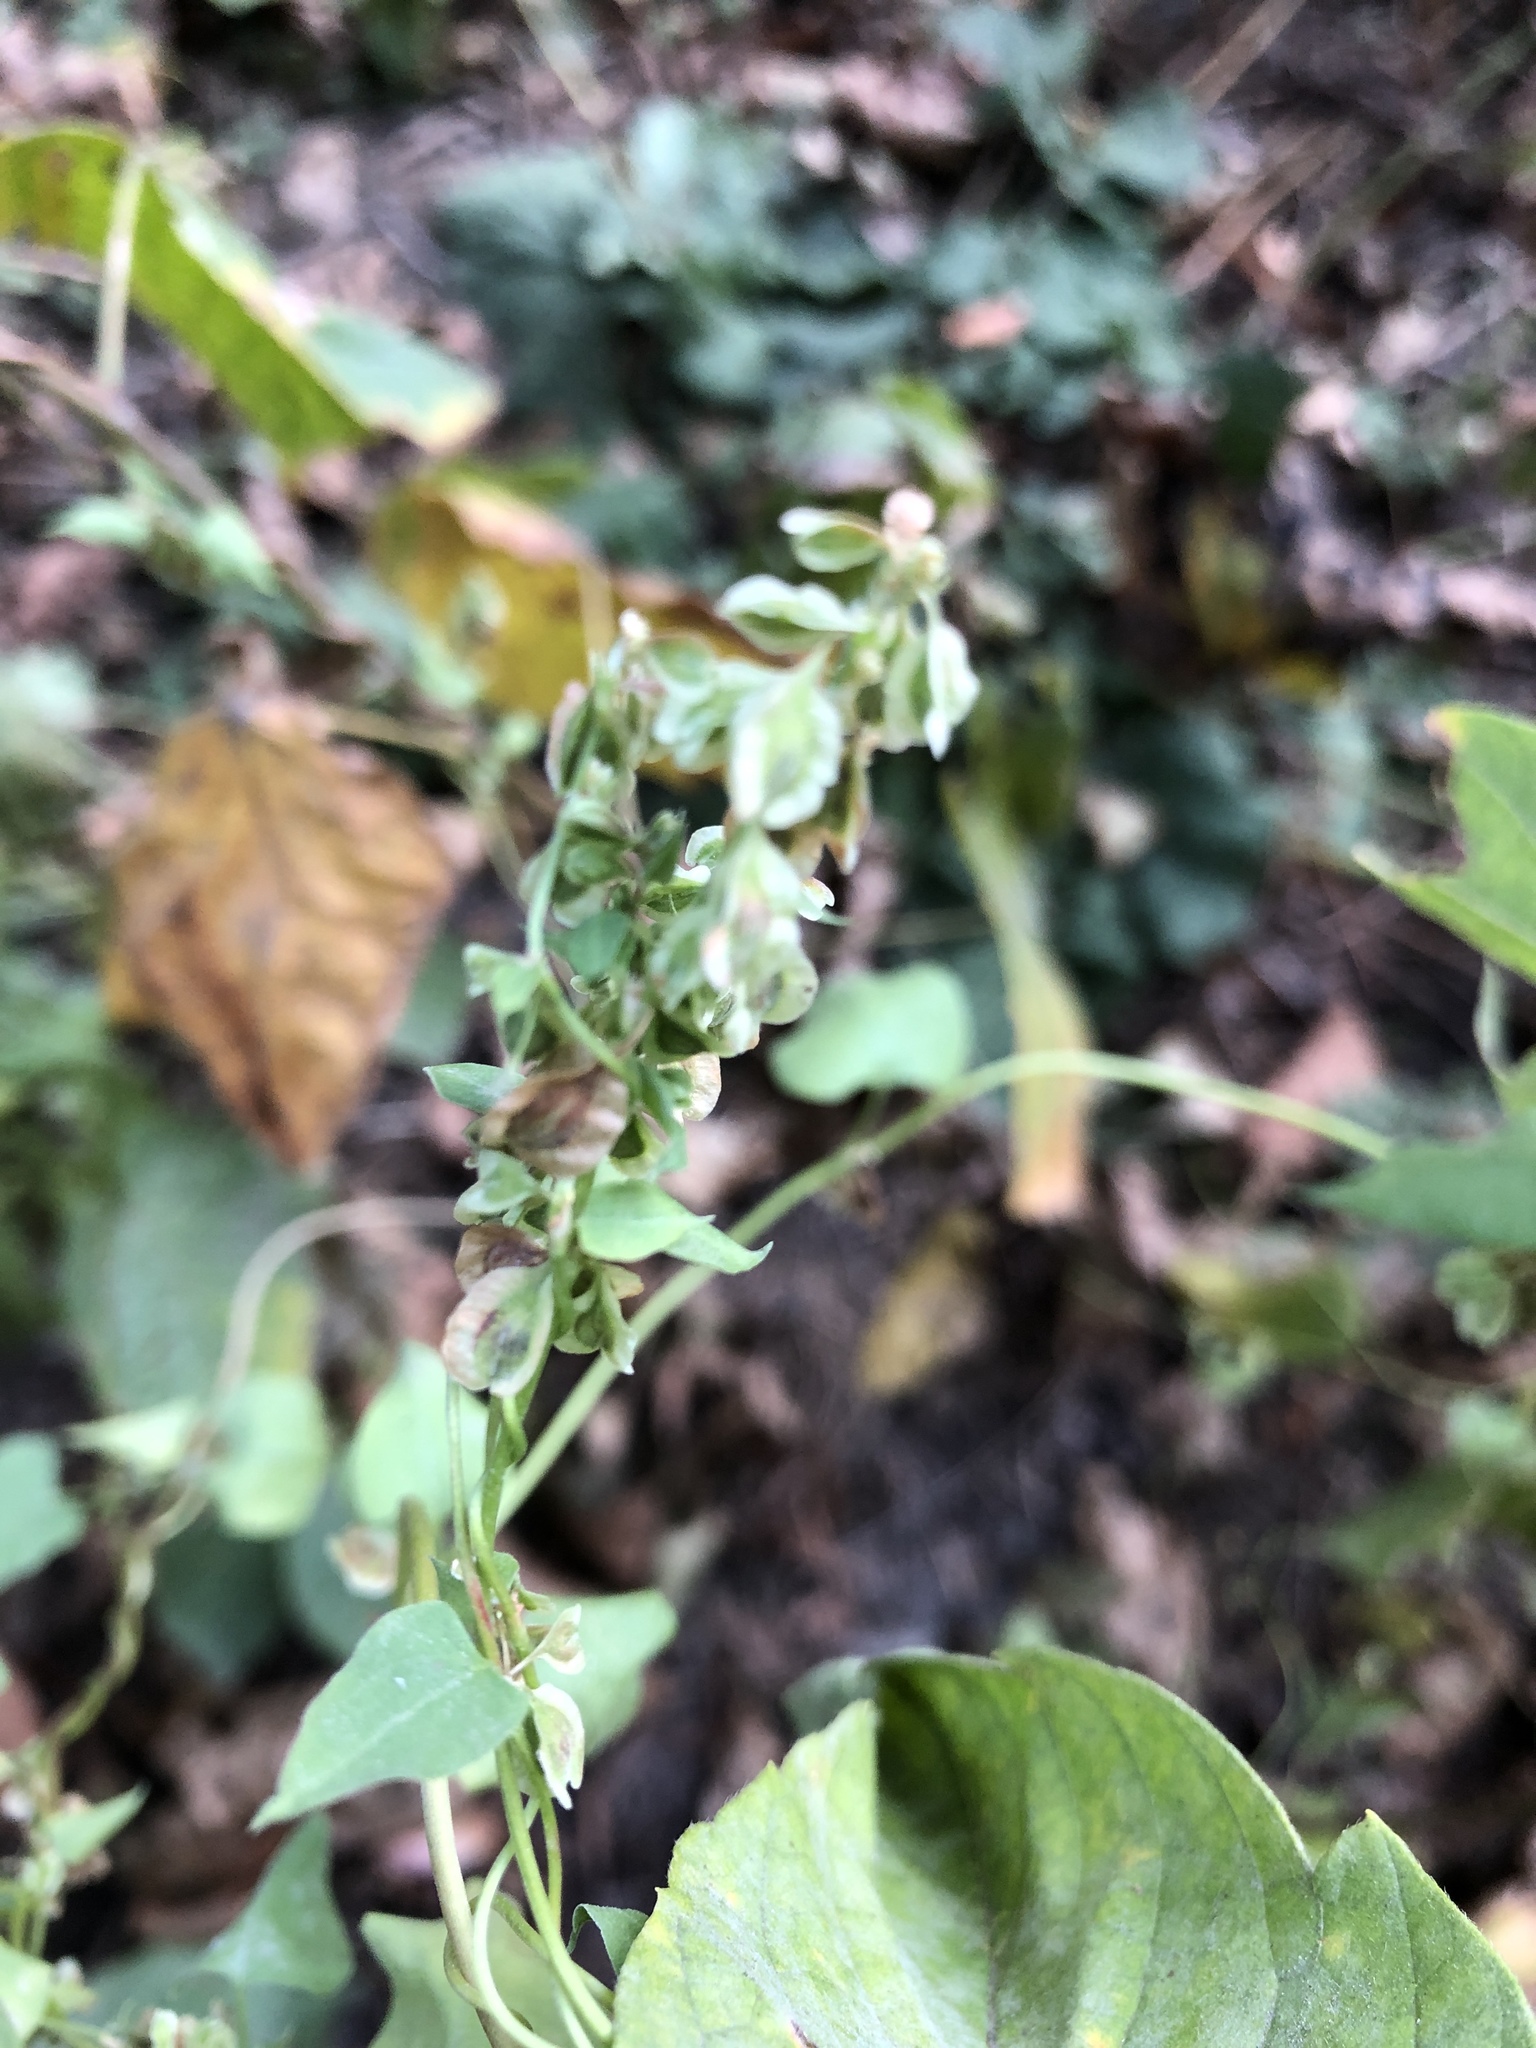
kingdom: Plantae
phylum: Tracheophyta
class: Magnoliopsida
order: Caryophyllales
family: Polygonaceae
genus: Fallopia
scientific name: Fallopia dumetorum
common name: Copse-bindweed
